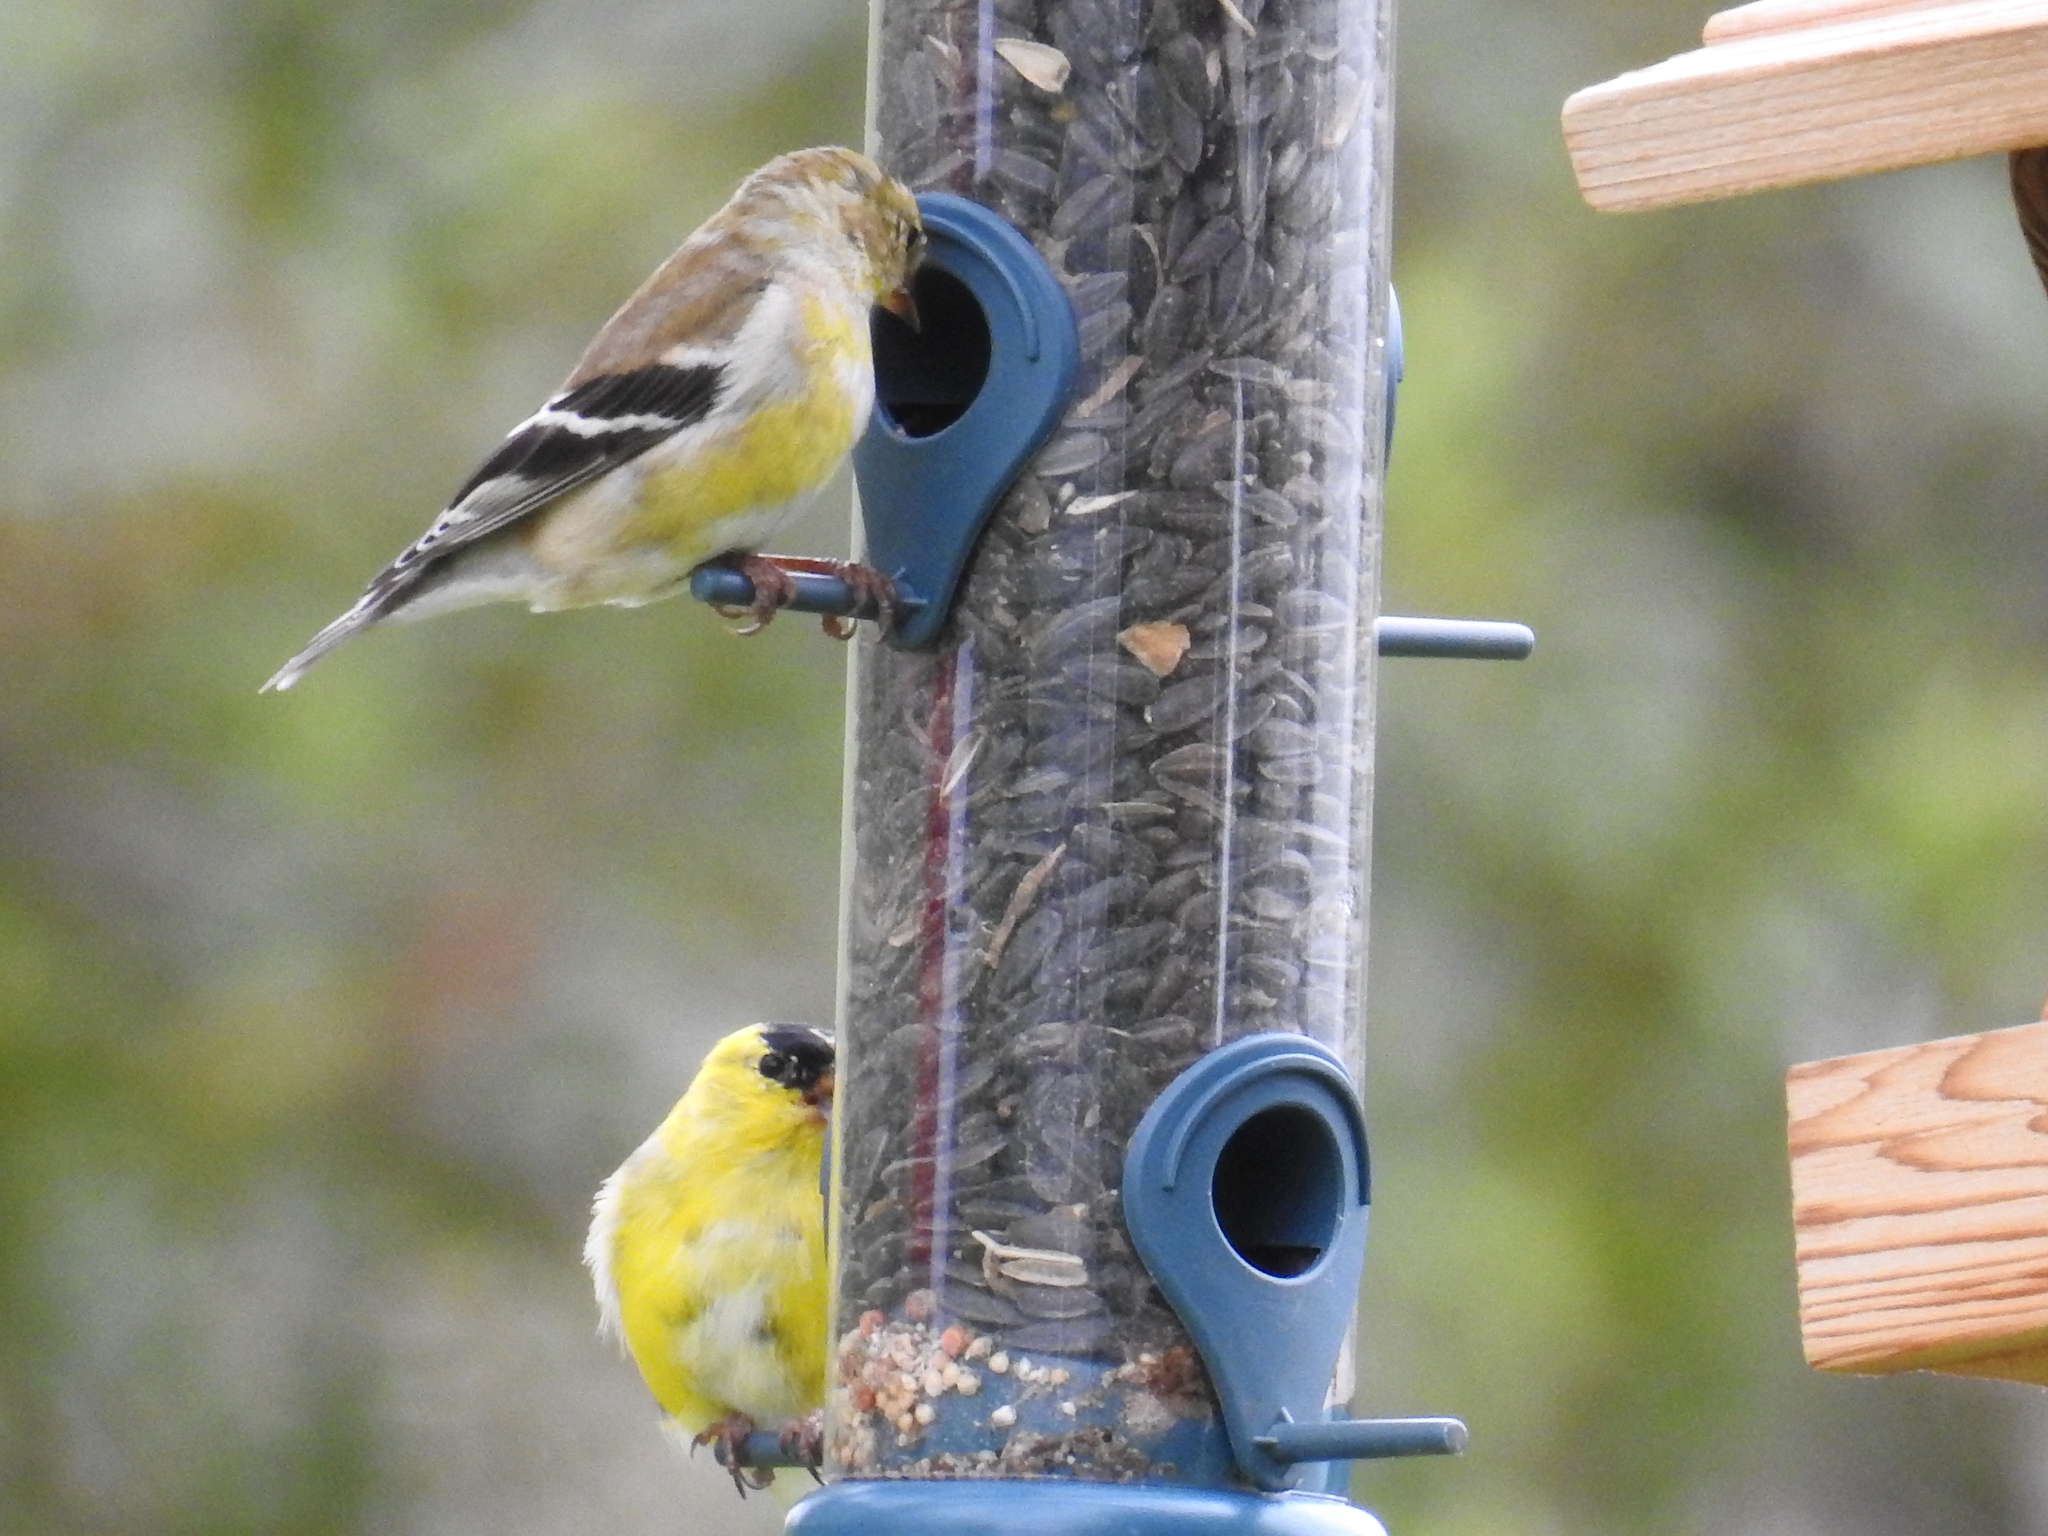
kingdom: Animalia
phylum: Chordata
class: Aves
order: Passeriformes
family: Fringillidae
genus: Spinus
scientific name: Spinus tristis
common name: American goldfinch
